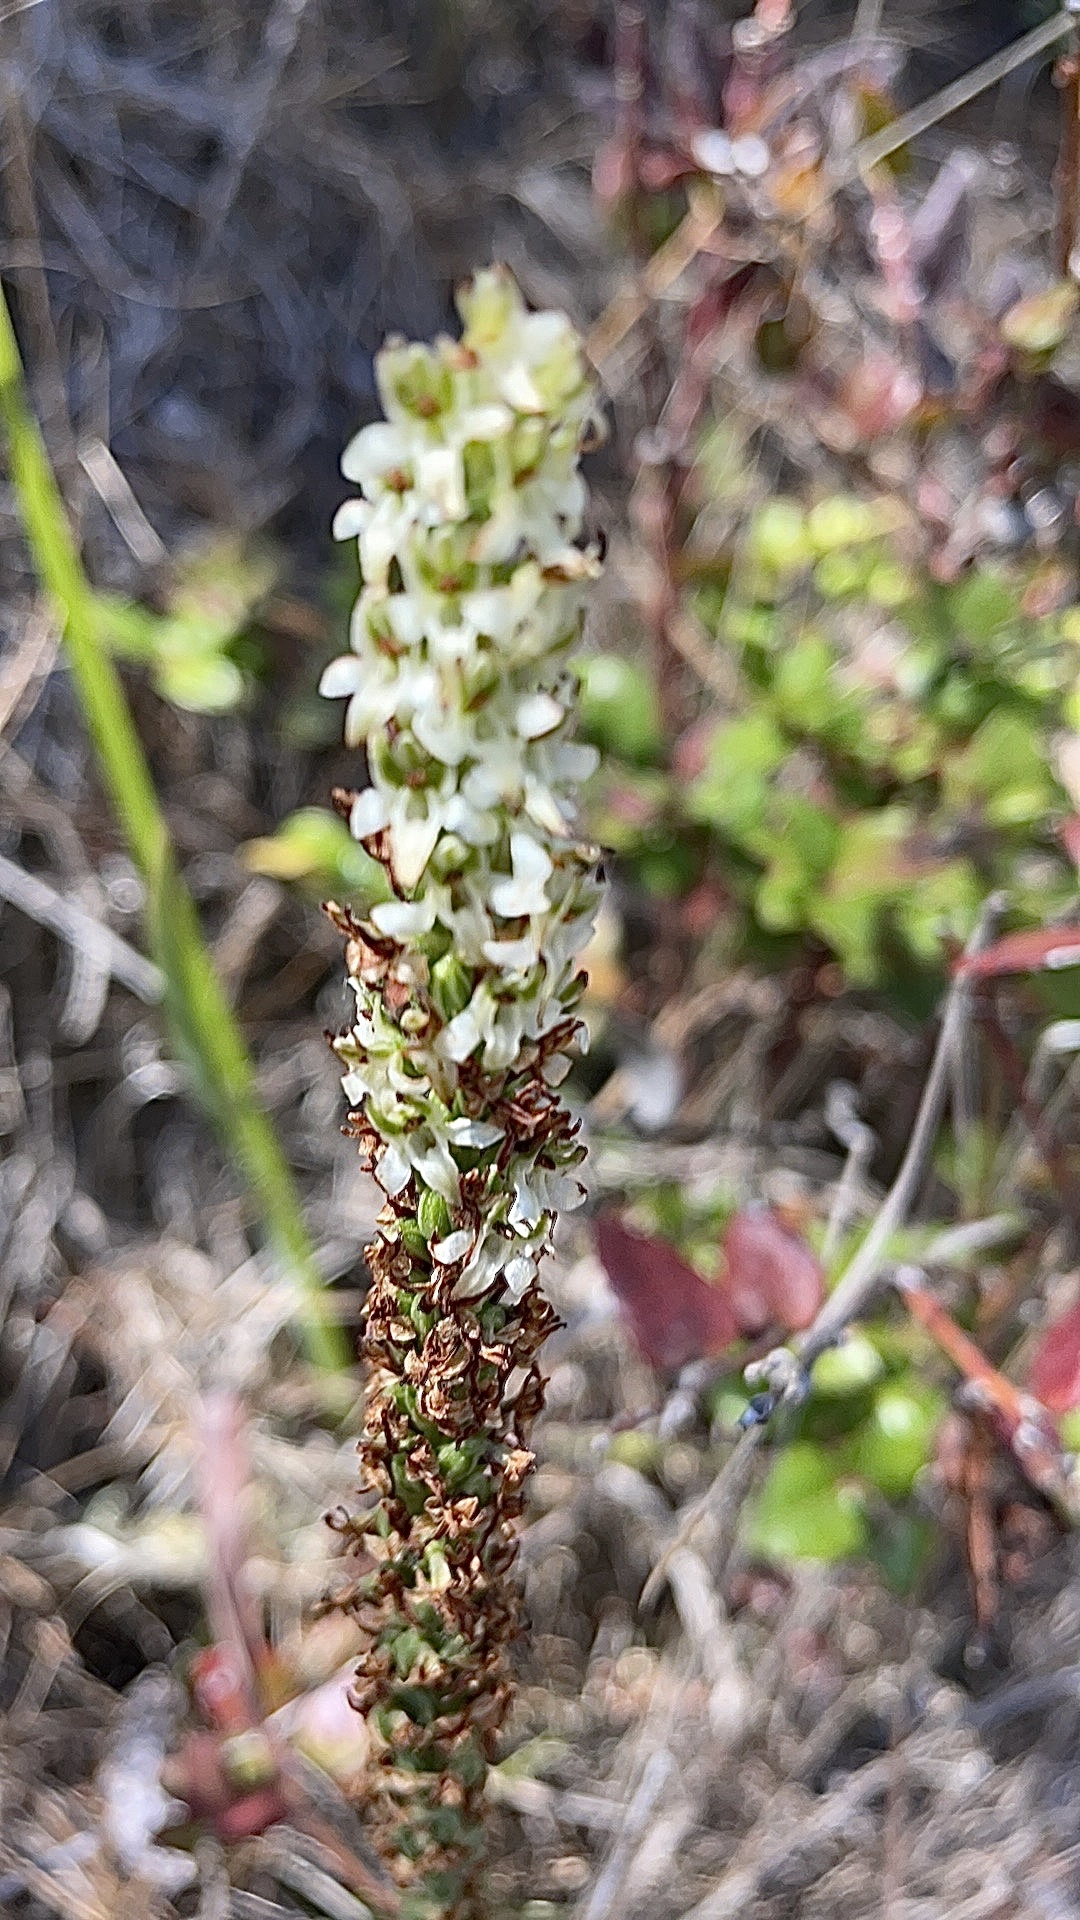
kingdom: Plantae
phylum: Tracheophyta
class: Liliopsida
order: Asparagales
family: Orchidaceae
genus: Platanthera
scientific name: Platanthera yadonii
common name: Yadon’s piperia
